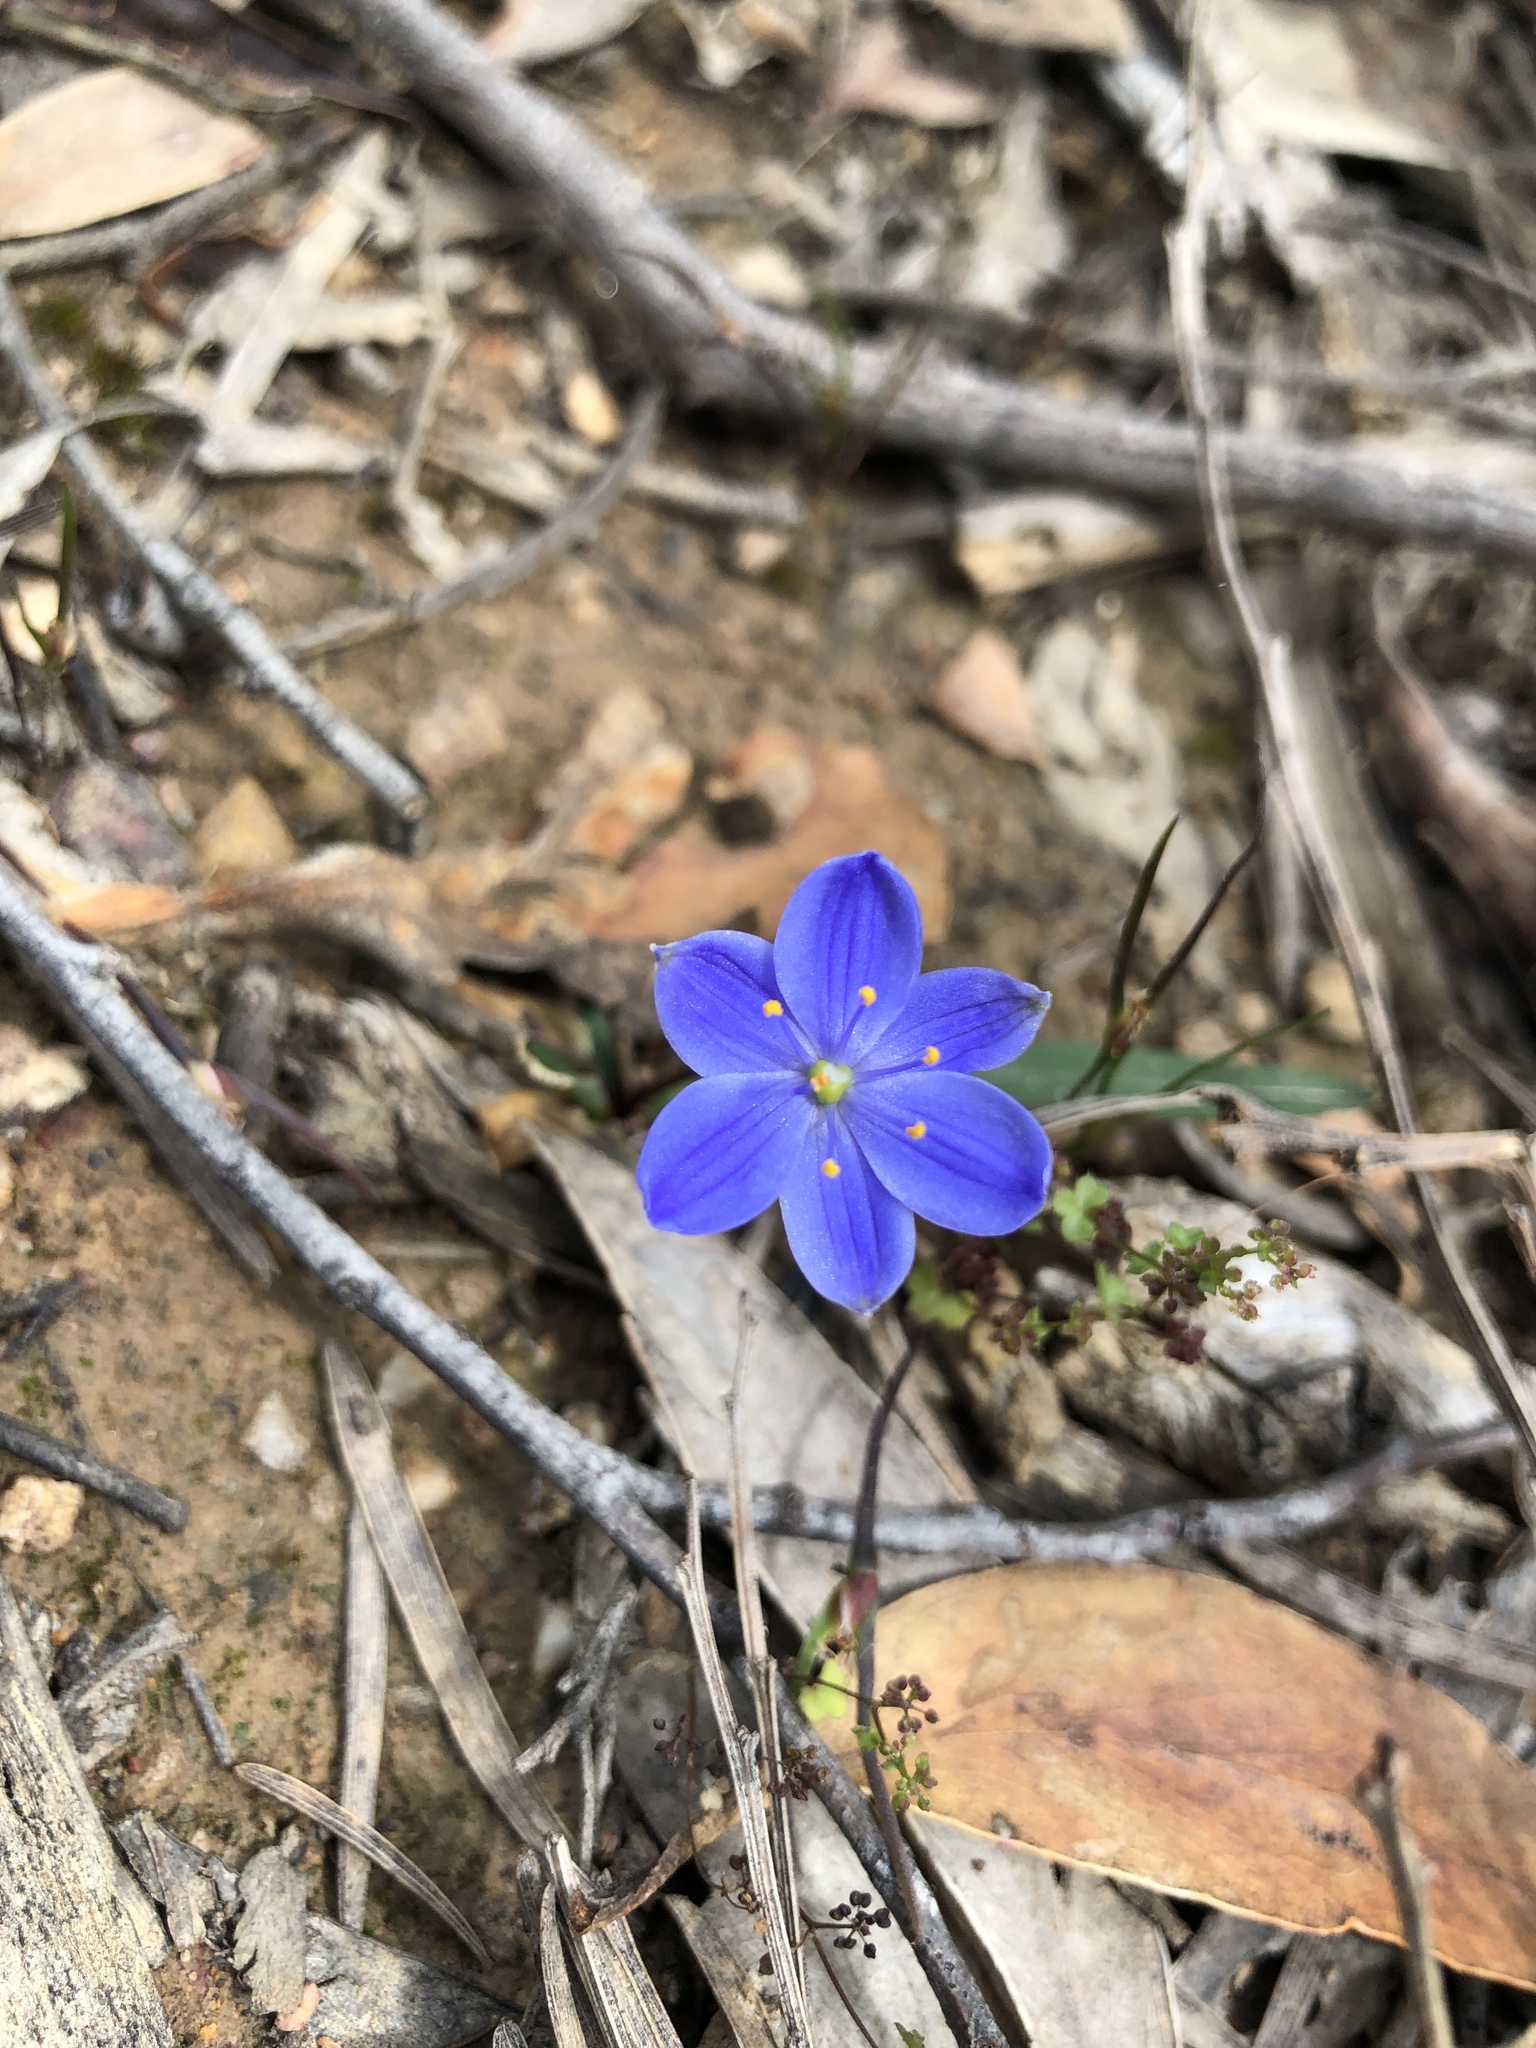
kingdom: Plantae
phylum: Tracheophyta
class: Liliopsida
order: Asparagales
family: Asphodelaceae
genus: Chamaescilla
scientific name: Chamaescilla corymbosa
